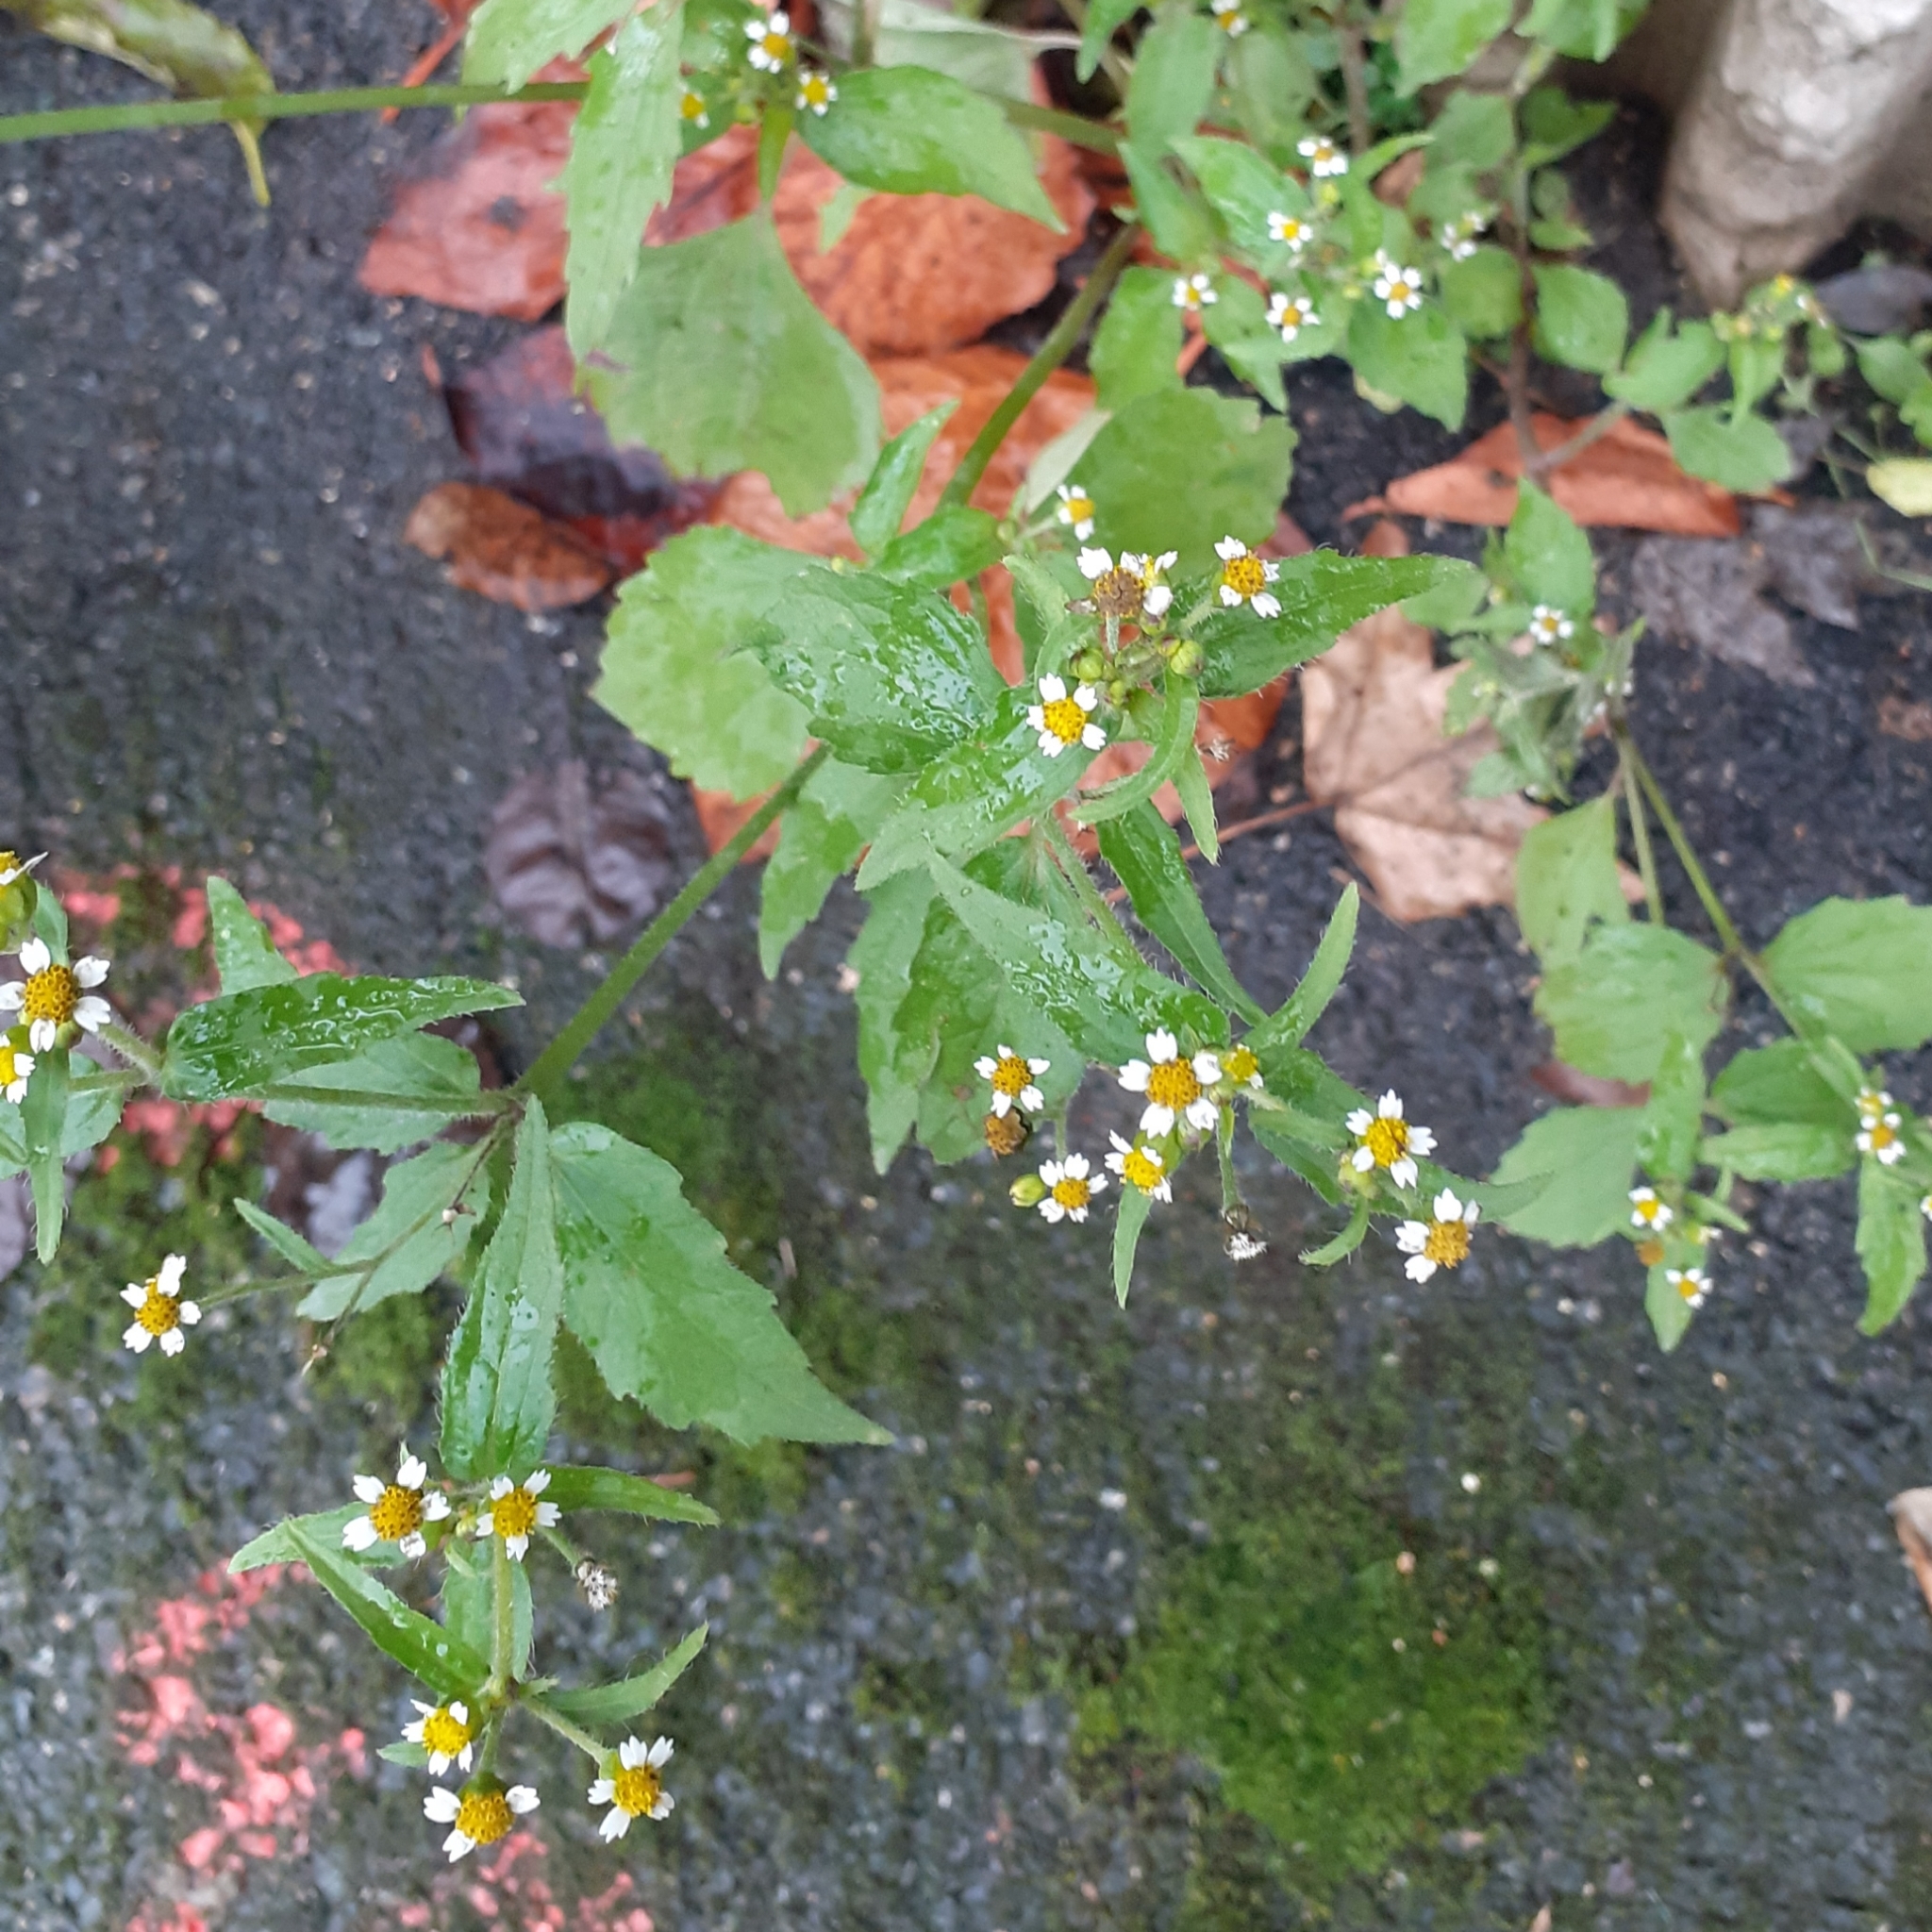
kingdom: Plantae
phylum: Tracheophyta
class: Magnoliopsida
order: Asterales
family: Asteraceae
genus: Galinsoga
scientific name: Galinsoga quadriradiata
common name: Shaggy soldier
